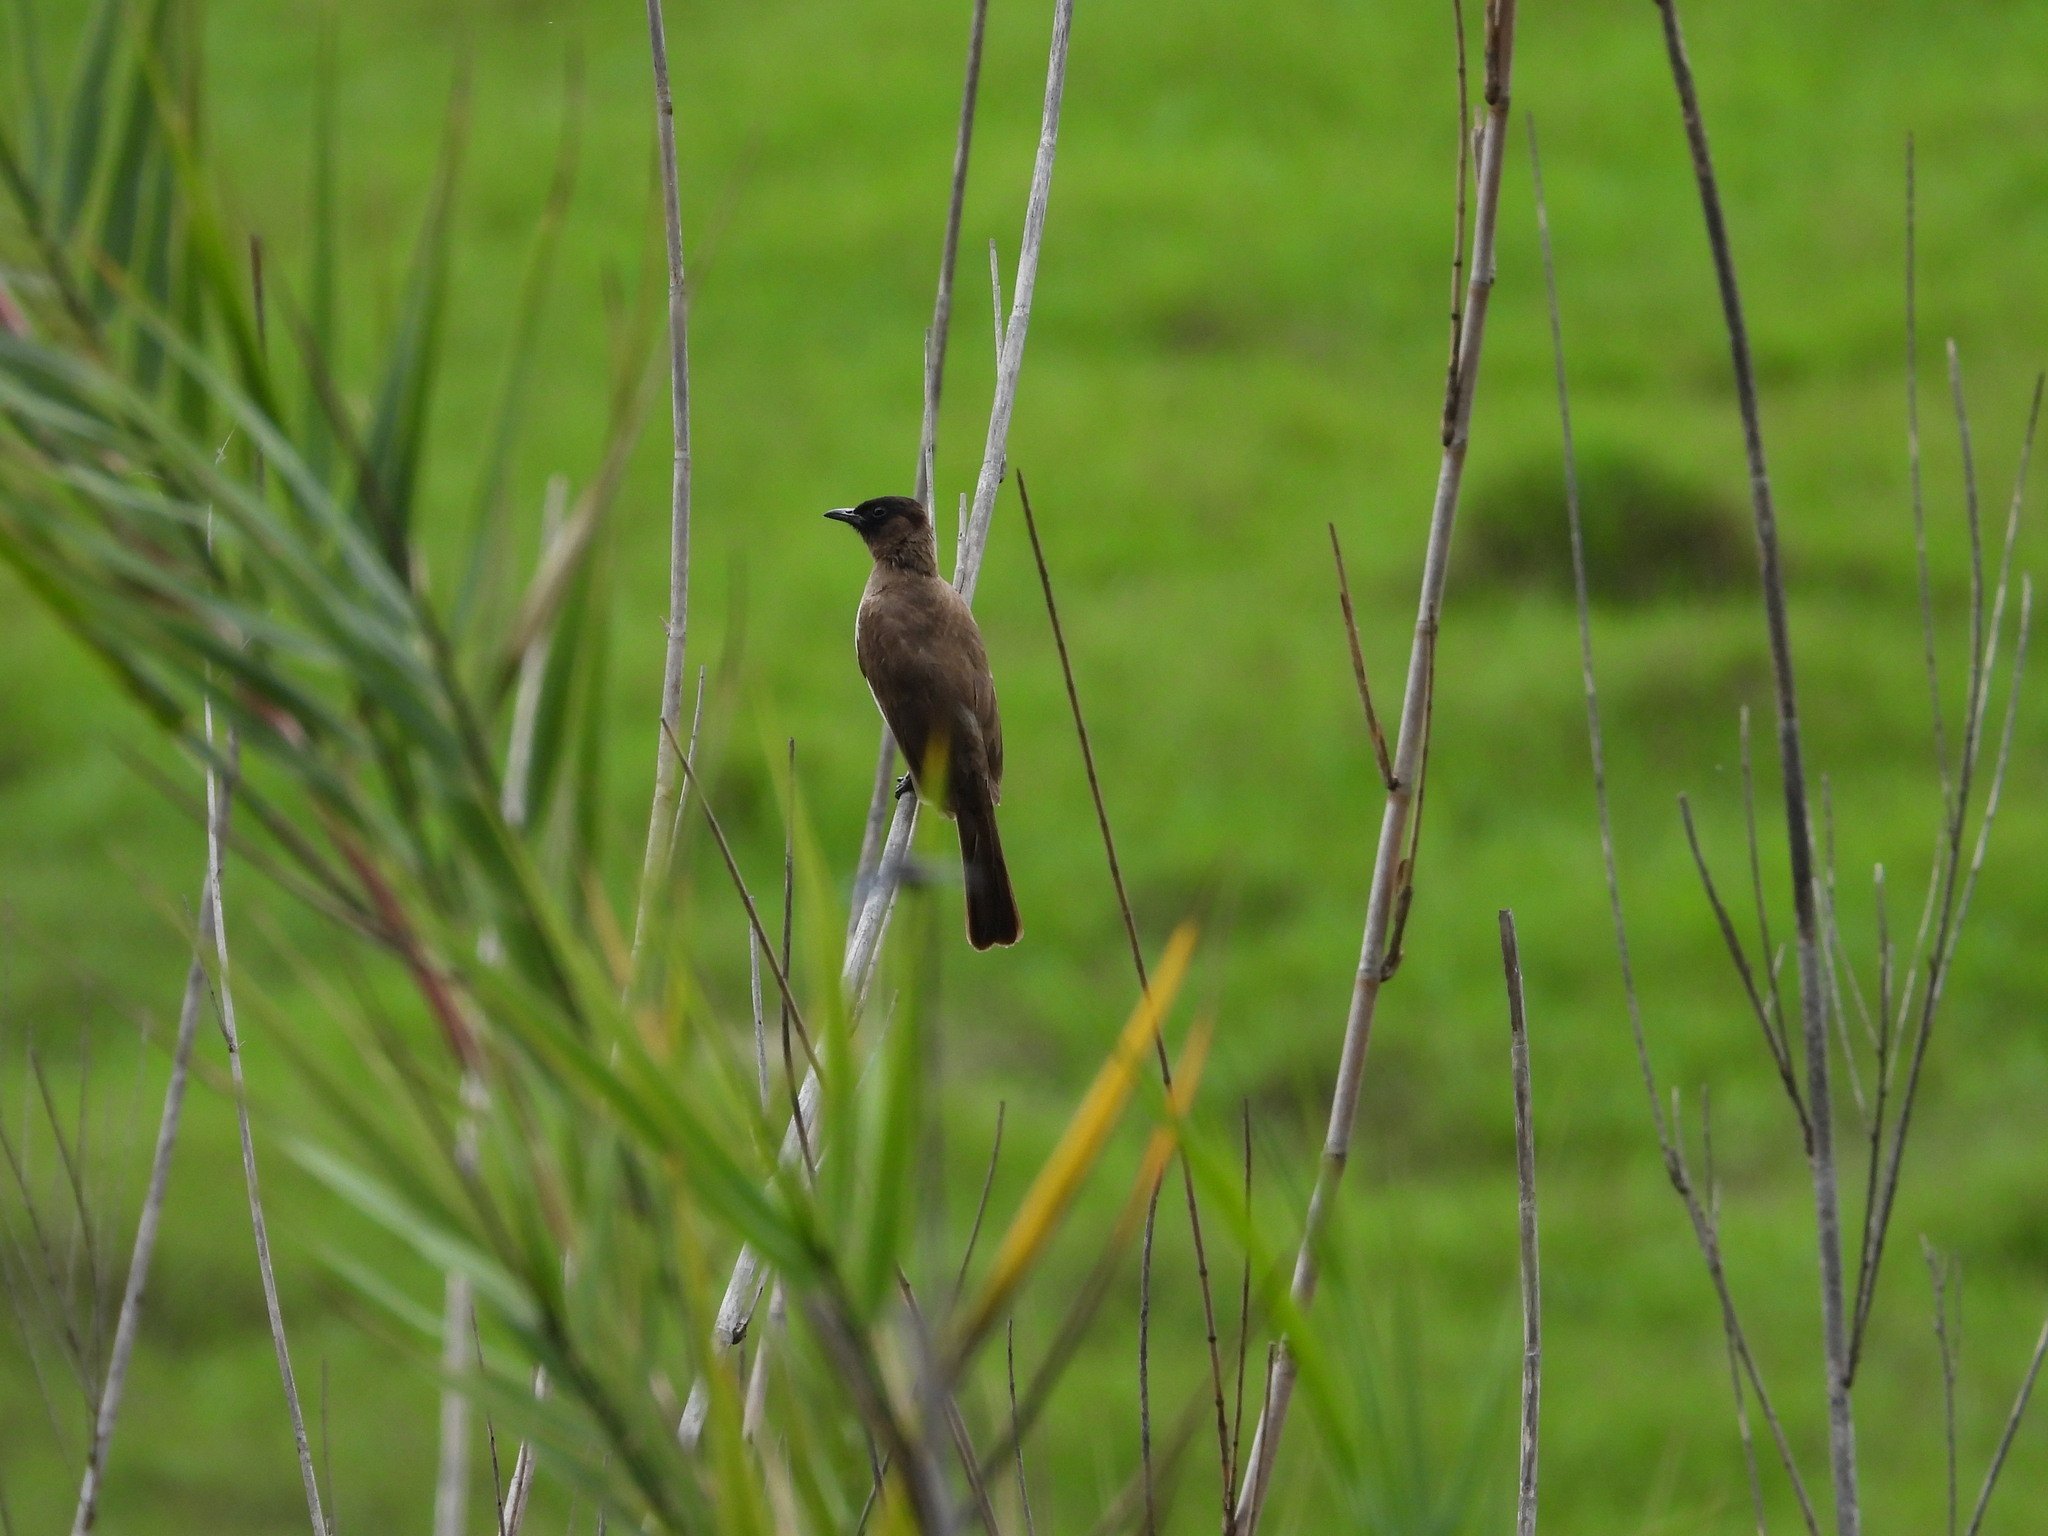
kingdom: Animalia
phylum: Chordata
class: Aves
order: Passeriformes
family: Pycnonotidae
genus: Pycnonotus
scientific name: Pycnonotus barbatus
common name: Common bulbul
